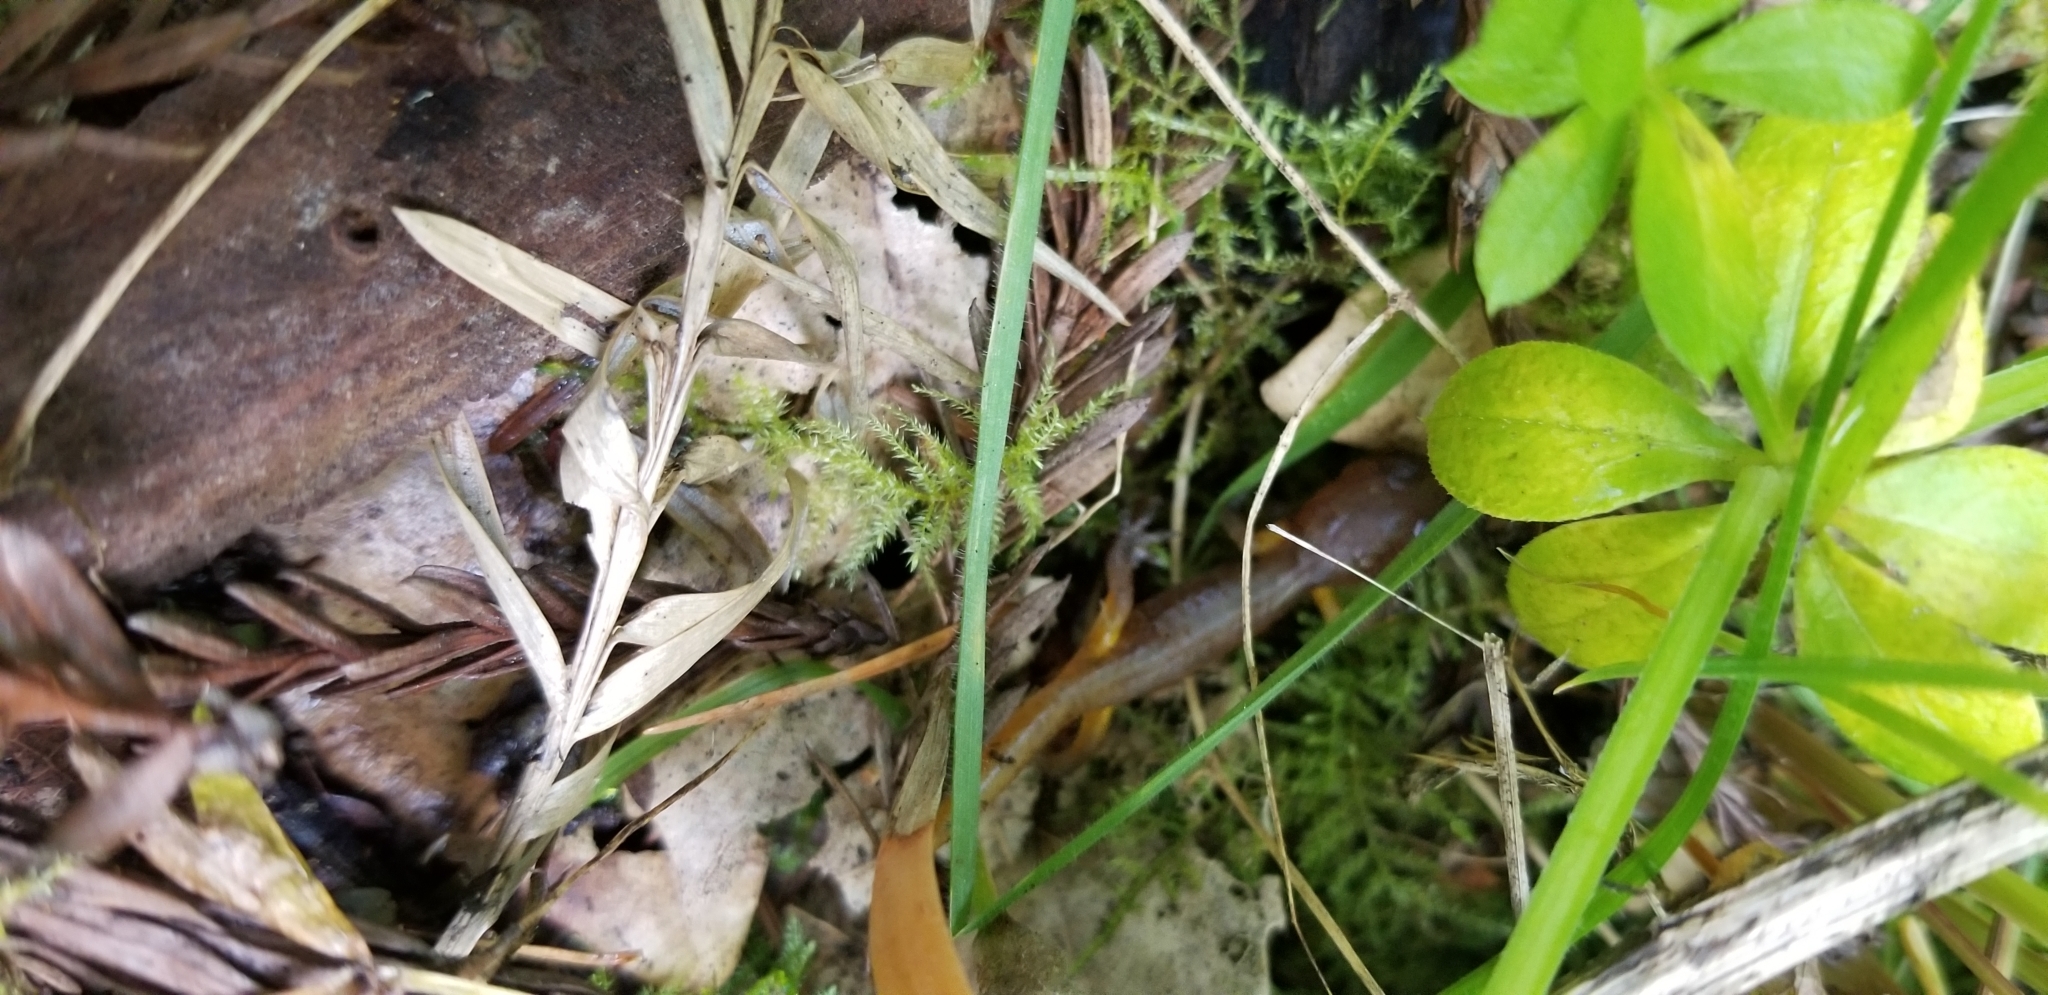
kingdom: Animalia
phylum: Chordata
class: Amphibia
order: Caudata
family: Plethodontidae
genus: Ensatina
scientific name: Ensatina eschscholtzii
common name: Ensatina
